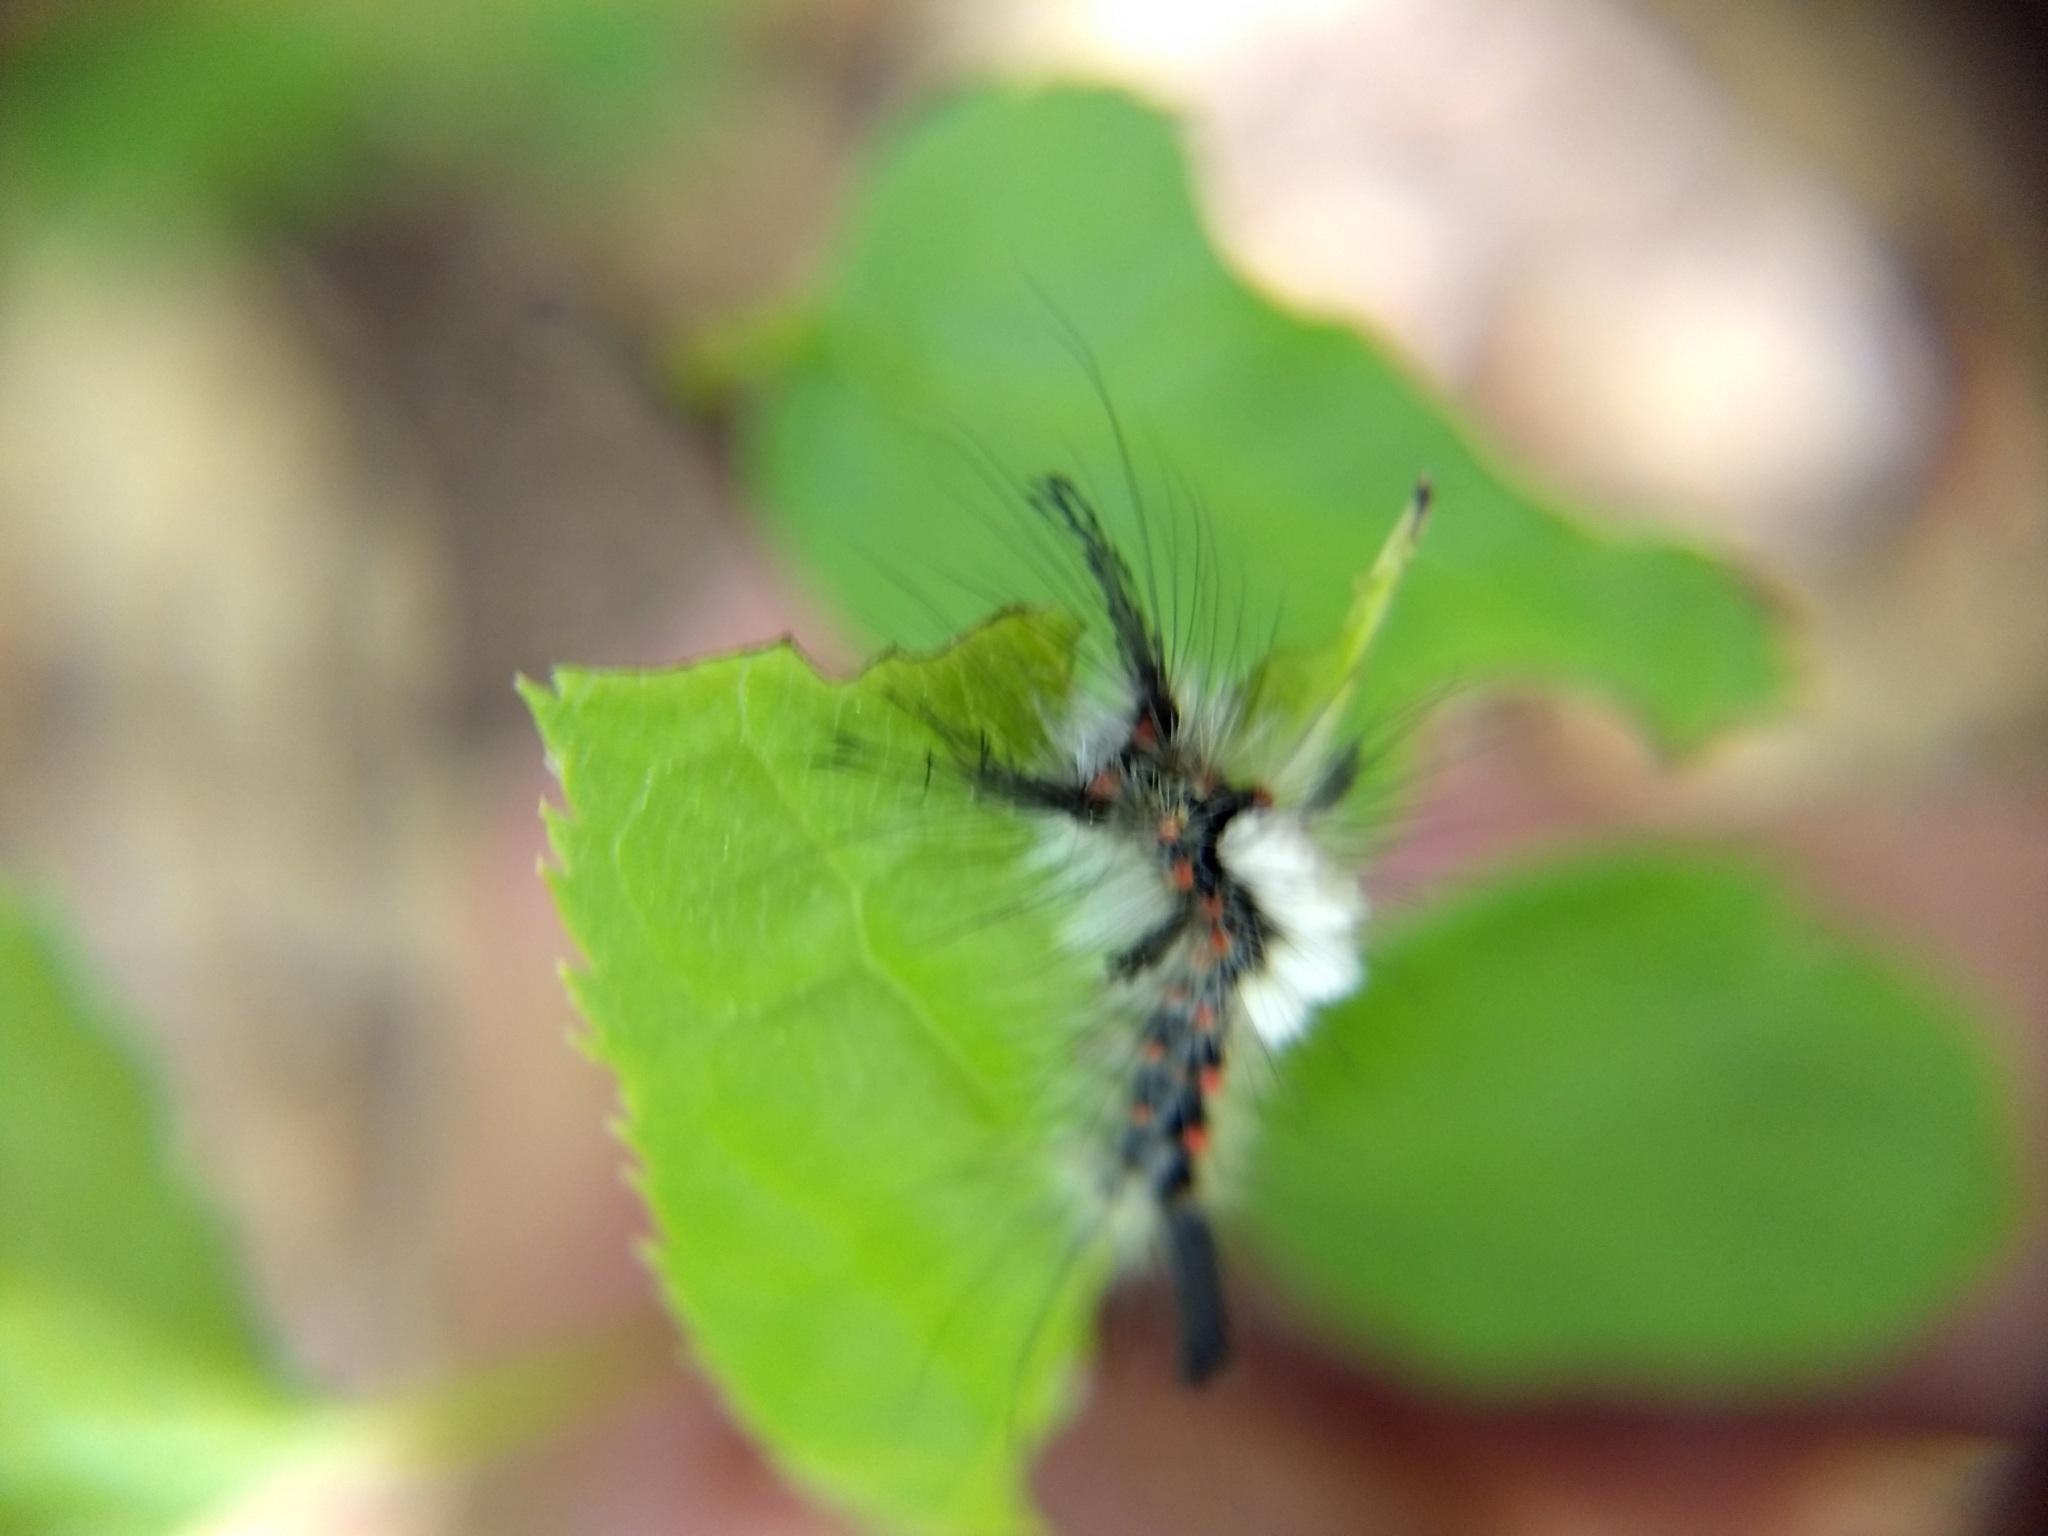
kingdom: Animalia
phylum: Arthropoda
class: Insecta
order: Lepidoptera
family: Erebidae
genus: Orgyia
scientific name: Orgyia antiqua
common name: Vapourer
